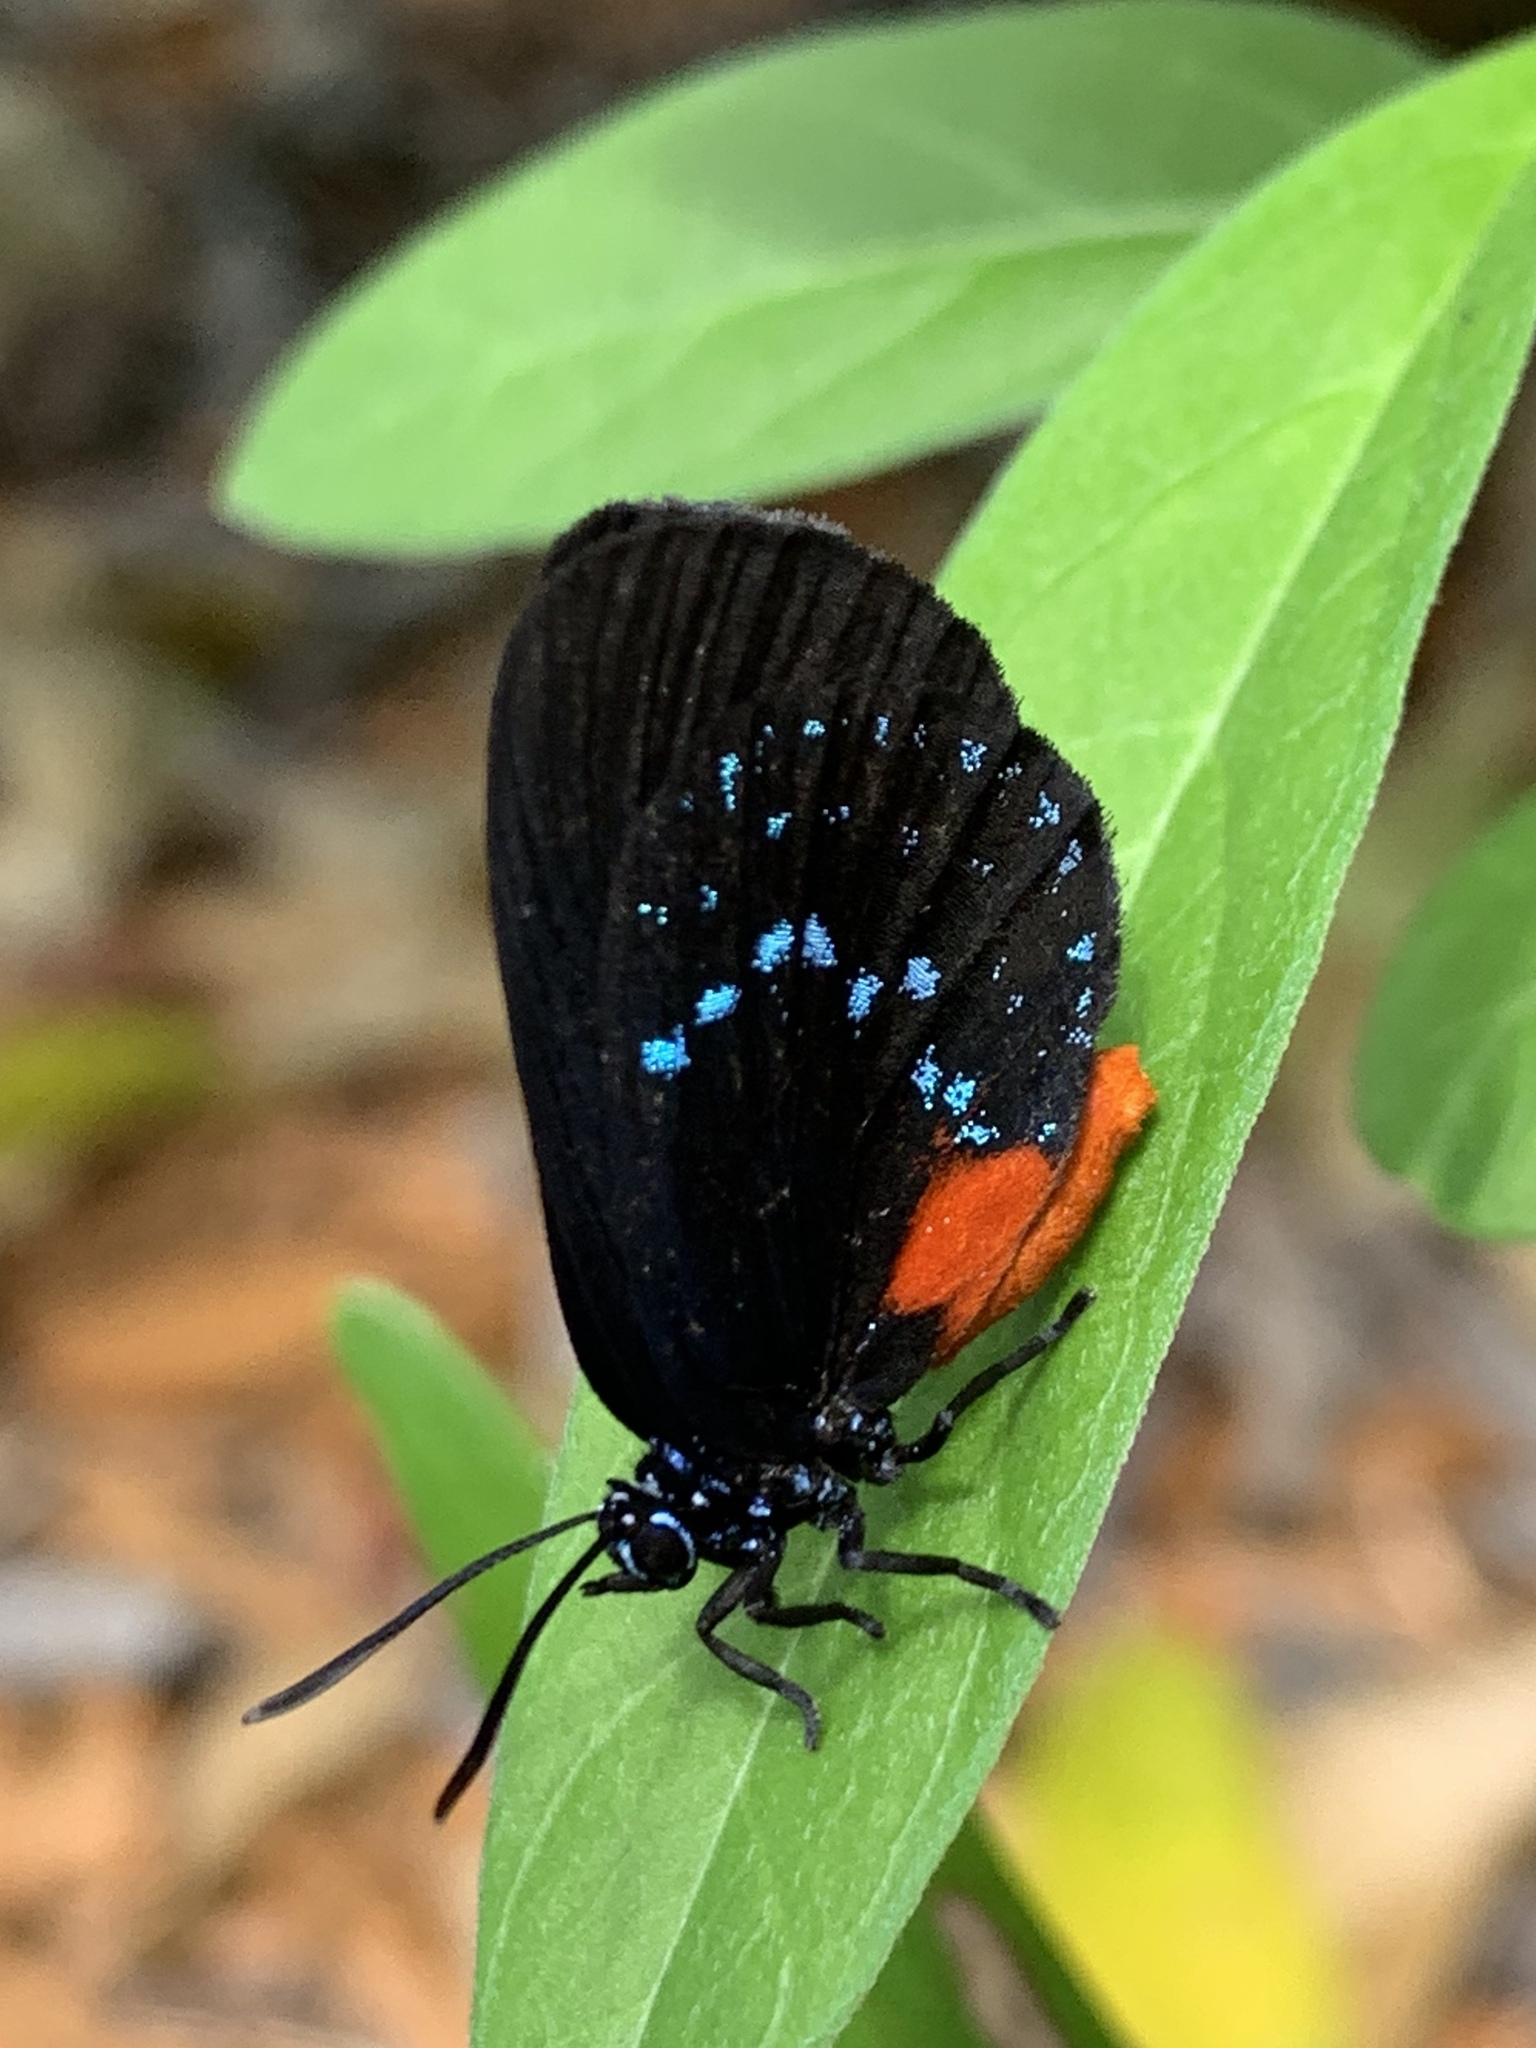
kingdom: Animalia
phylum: Arthropoda
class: Insecta
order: Lepidoptera
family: Lycaenidae
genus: Eumaeus
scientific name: Eumaeus atala
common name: Atala
